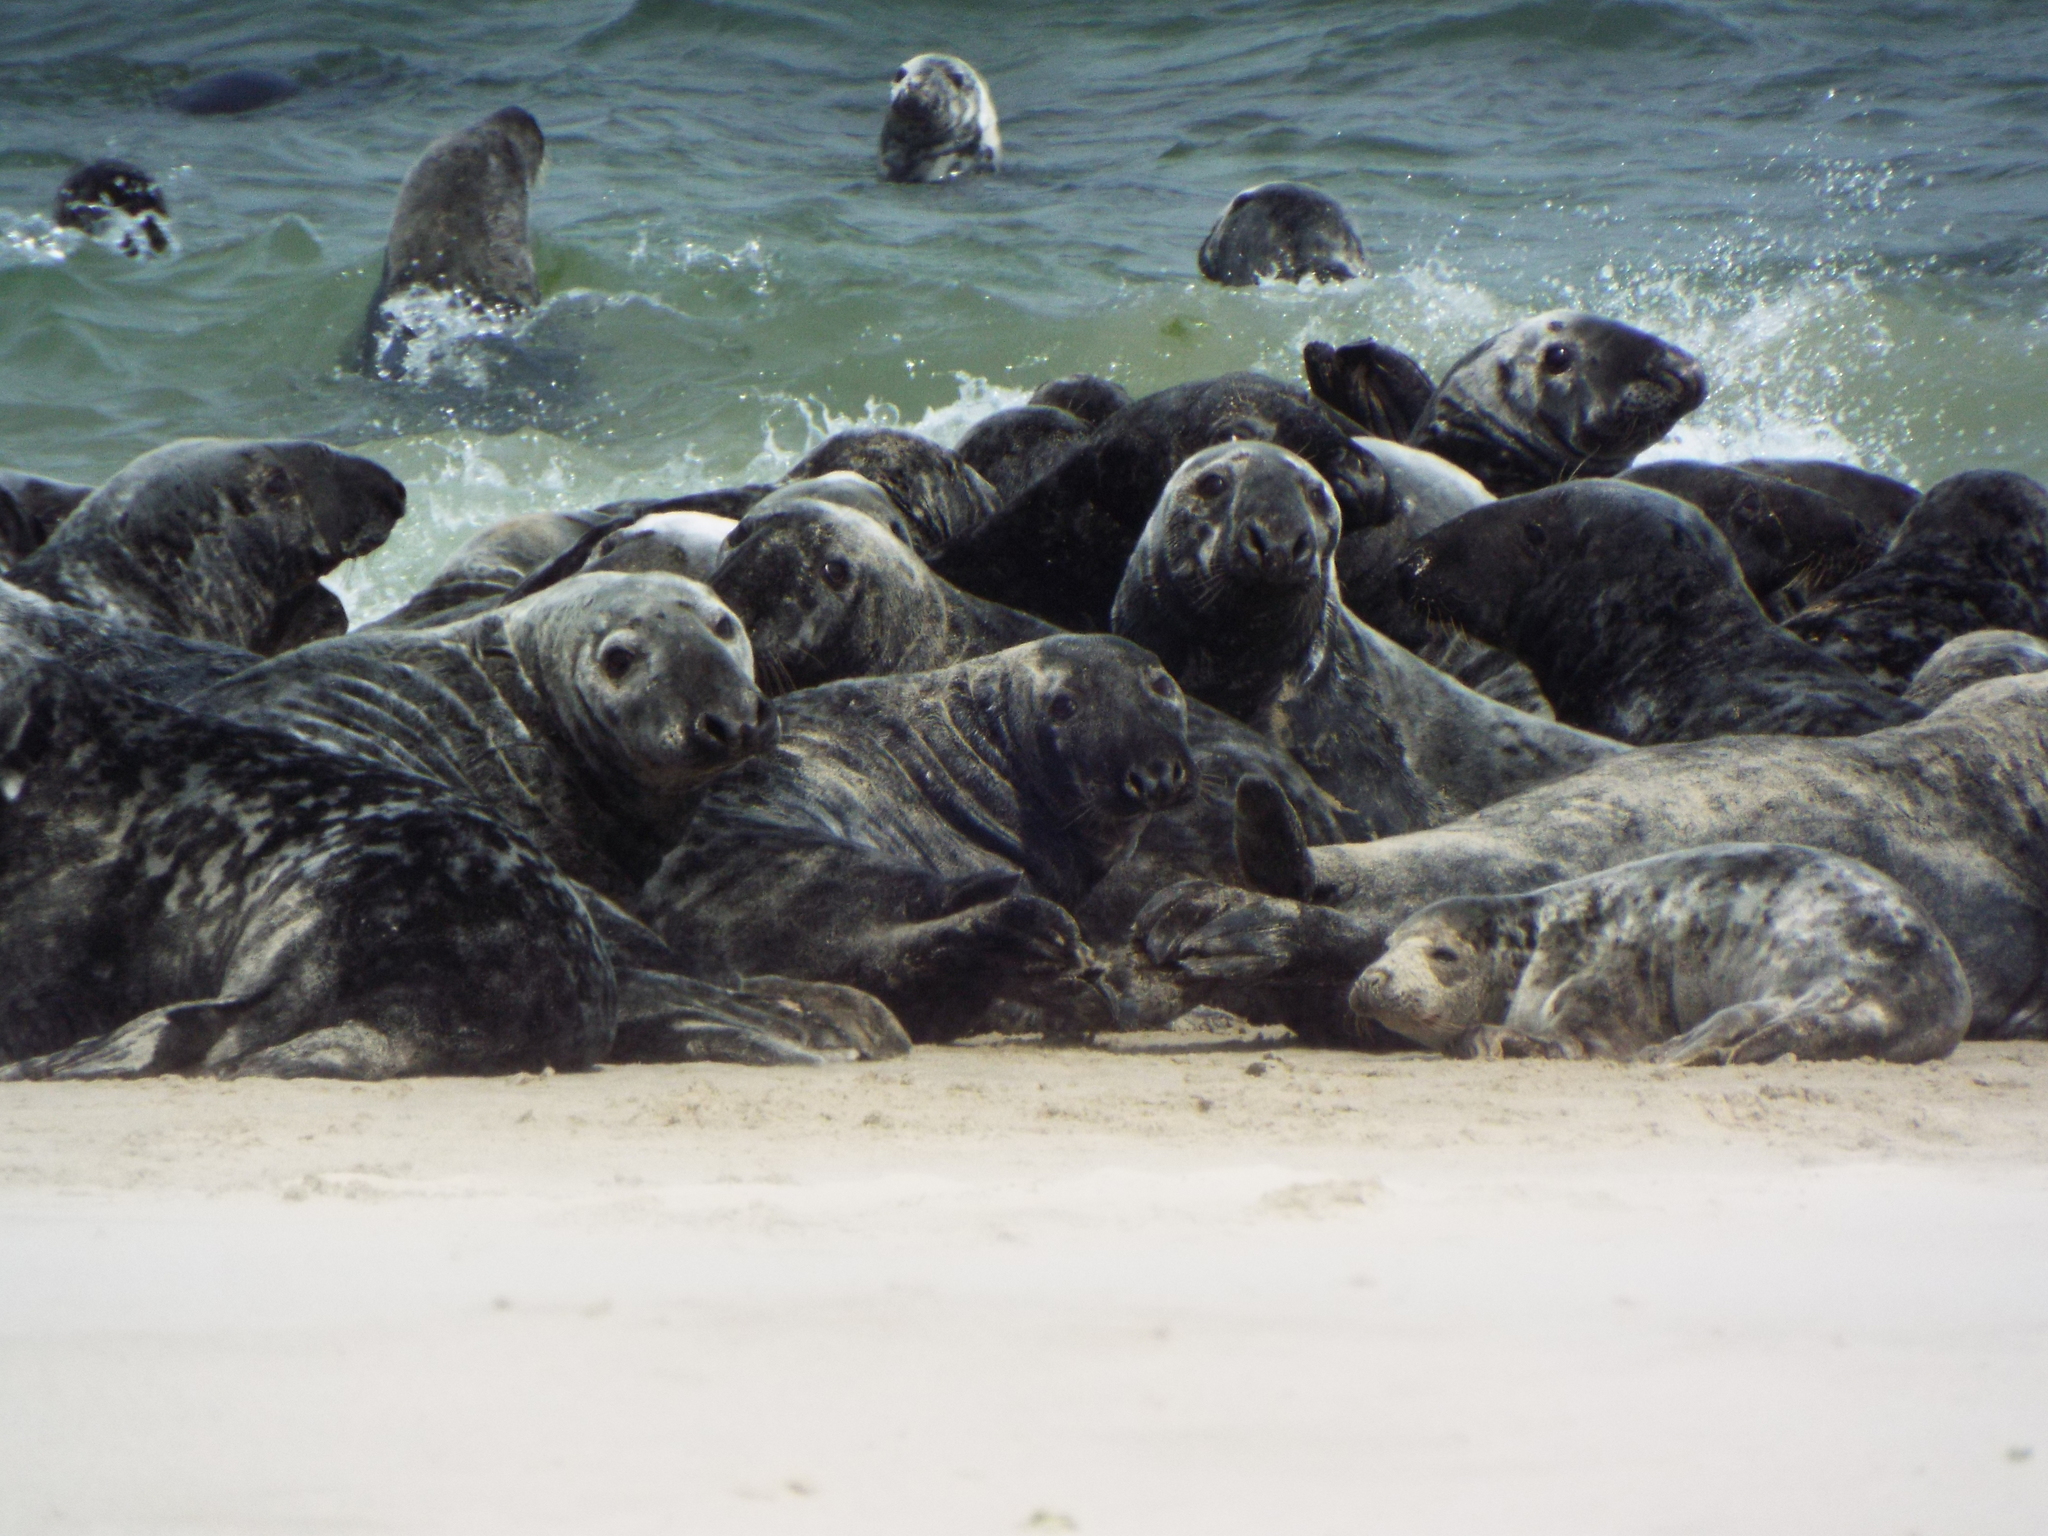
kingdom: Animalia
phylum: Chordata
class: Mammalia
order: Carnivora
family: Phocidae
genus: Halichoerus
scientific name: Halichoerus grypus
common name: Grey seal
